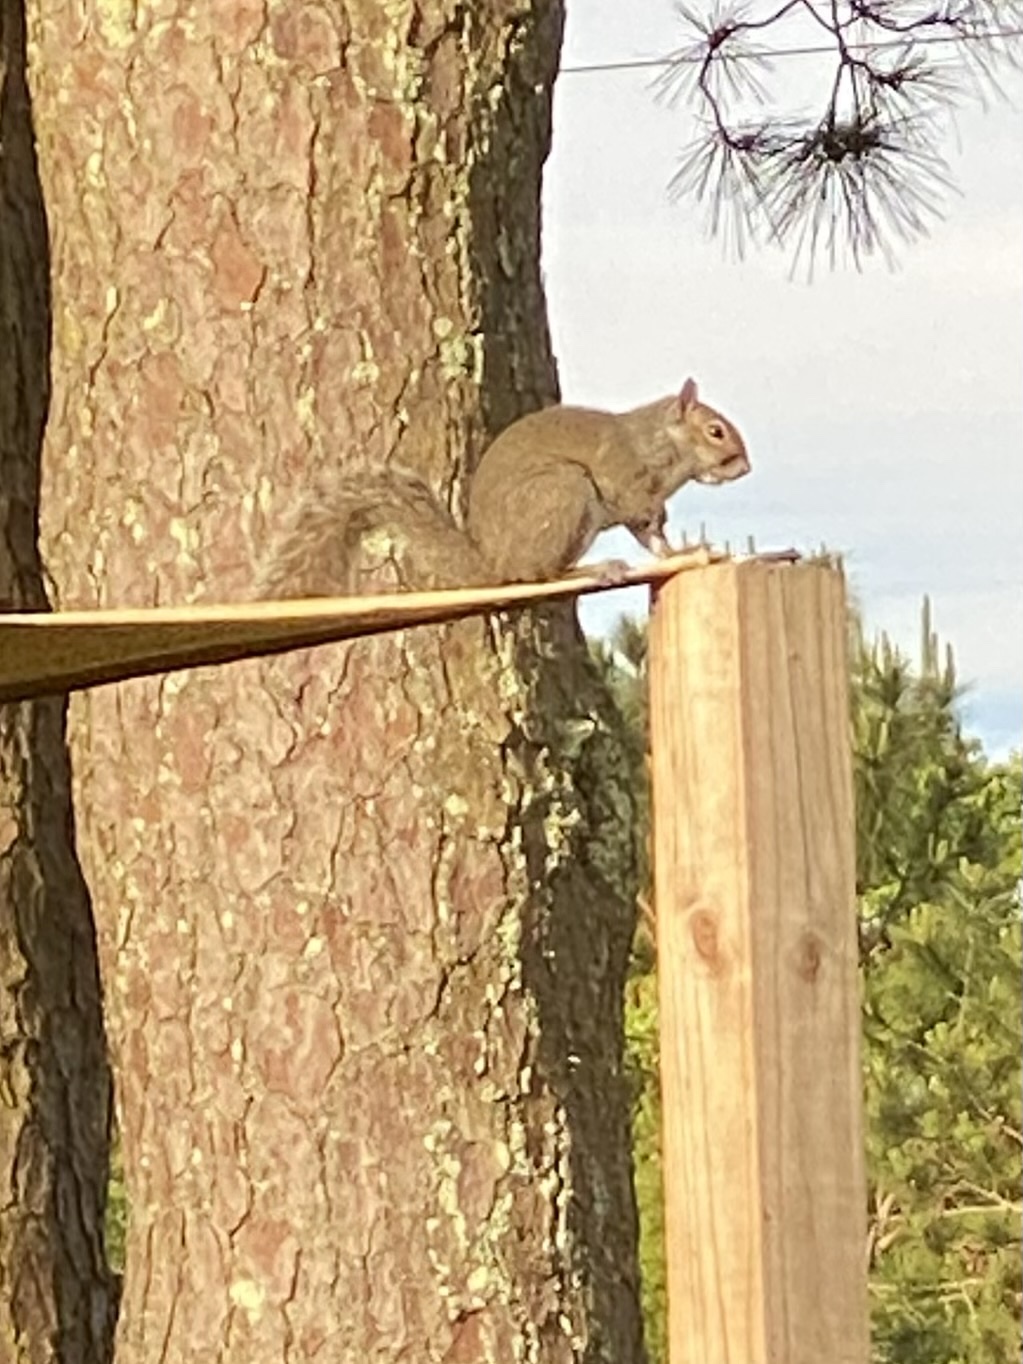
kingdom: Animalia
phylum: Chordata
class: Mammalia
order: Rodentia
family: Sciuridae
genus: Sciurus
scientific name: Sciurus carolinensis
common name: Eastern gray squirrel
